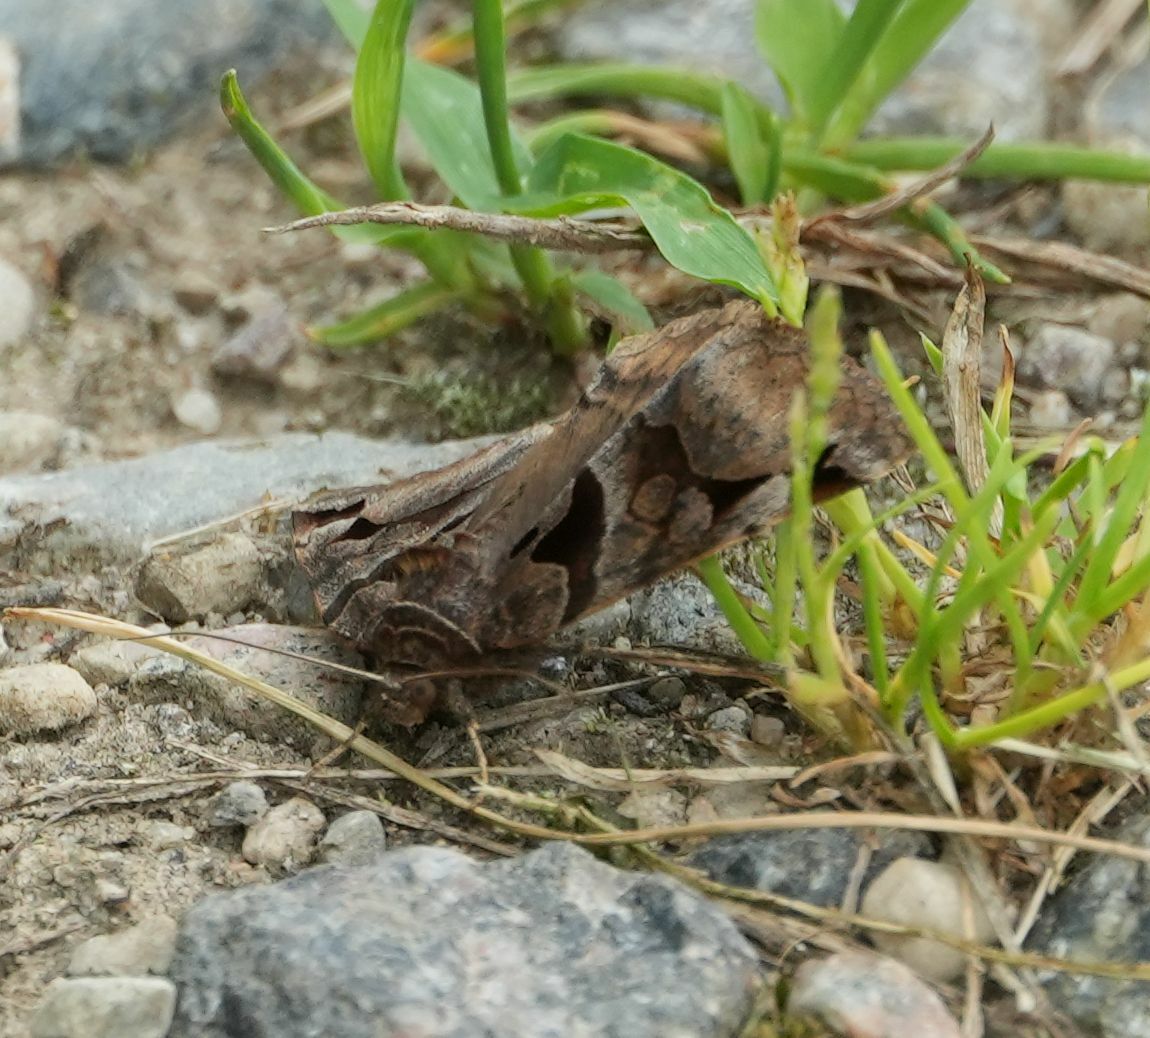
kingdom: Animalia
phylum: Arthropoda
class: Insecta
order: Lepidoptera
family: Erebidae
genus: Euclidia
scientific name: Euclidia cuspidea
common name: Toothed somberwing
